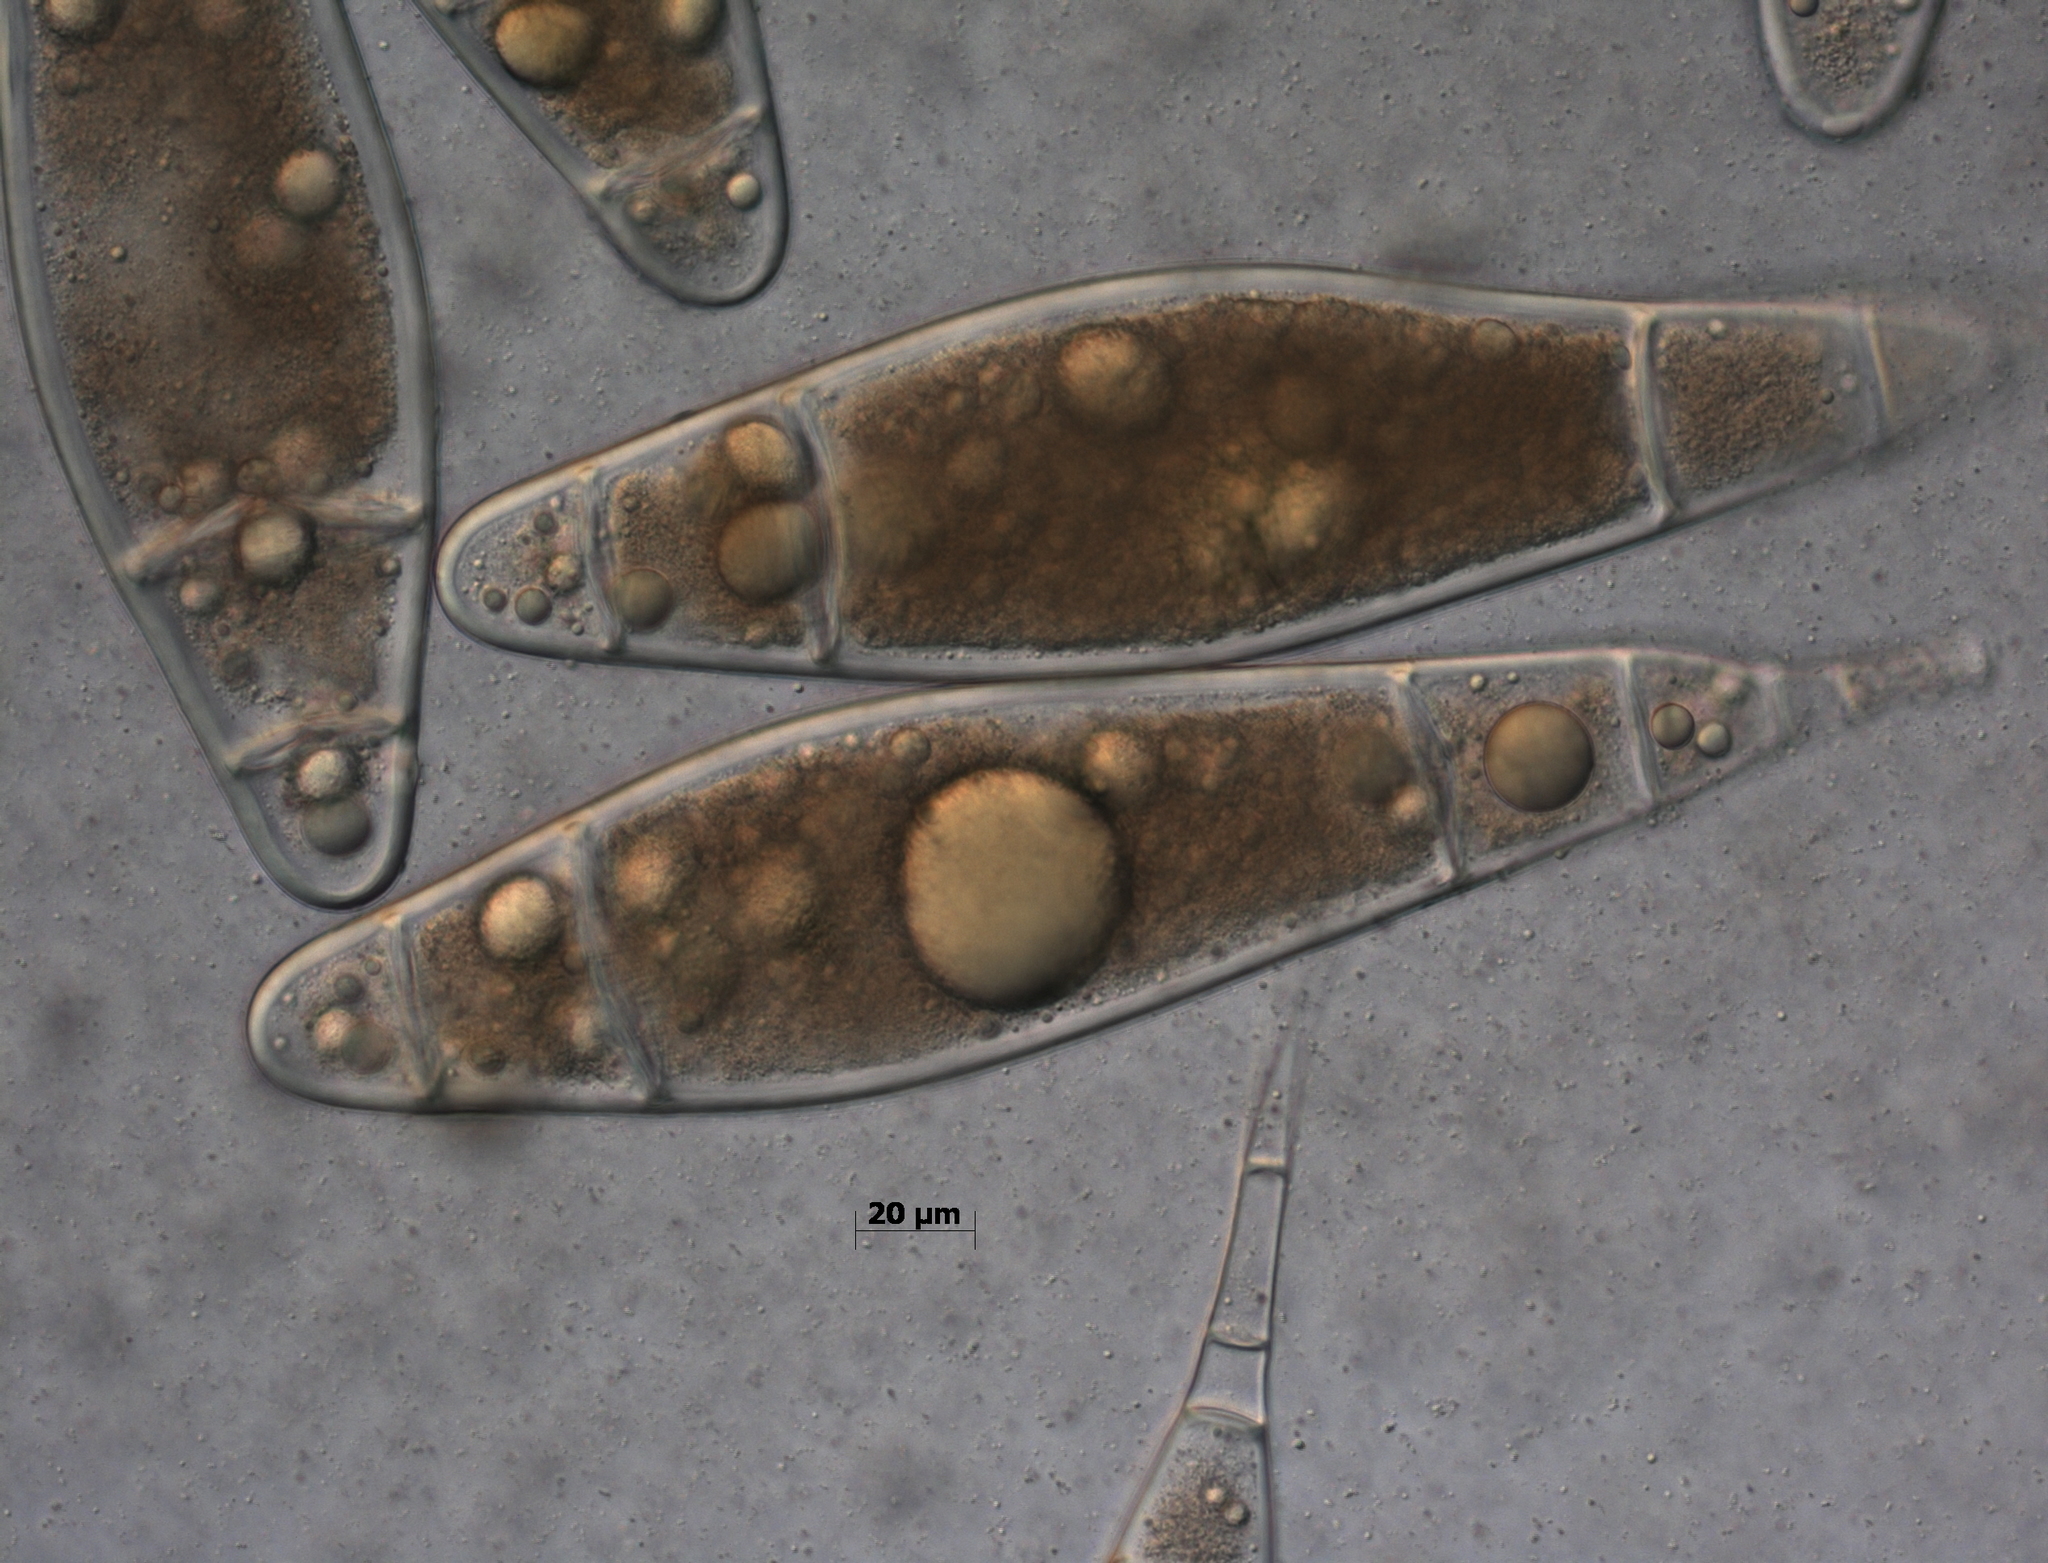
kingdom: Fungi
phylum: Ascomycota
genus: Bactridium
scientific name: Bactridium subglandis
